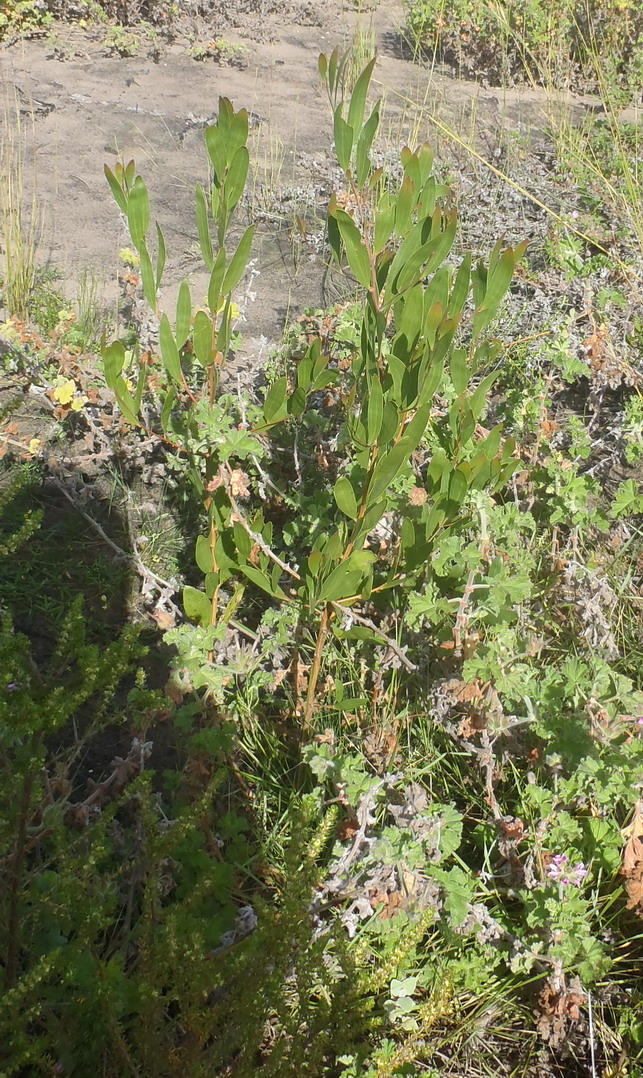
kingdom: Plantae
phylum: Tracheophyta
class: Magnoliopsida
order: Fabales
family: Fabaceae
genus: Acacia
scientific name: Acacia cyclops
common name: Coastal wattle
